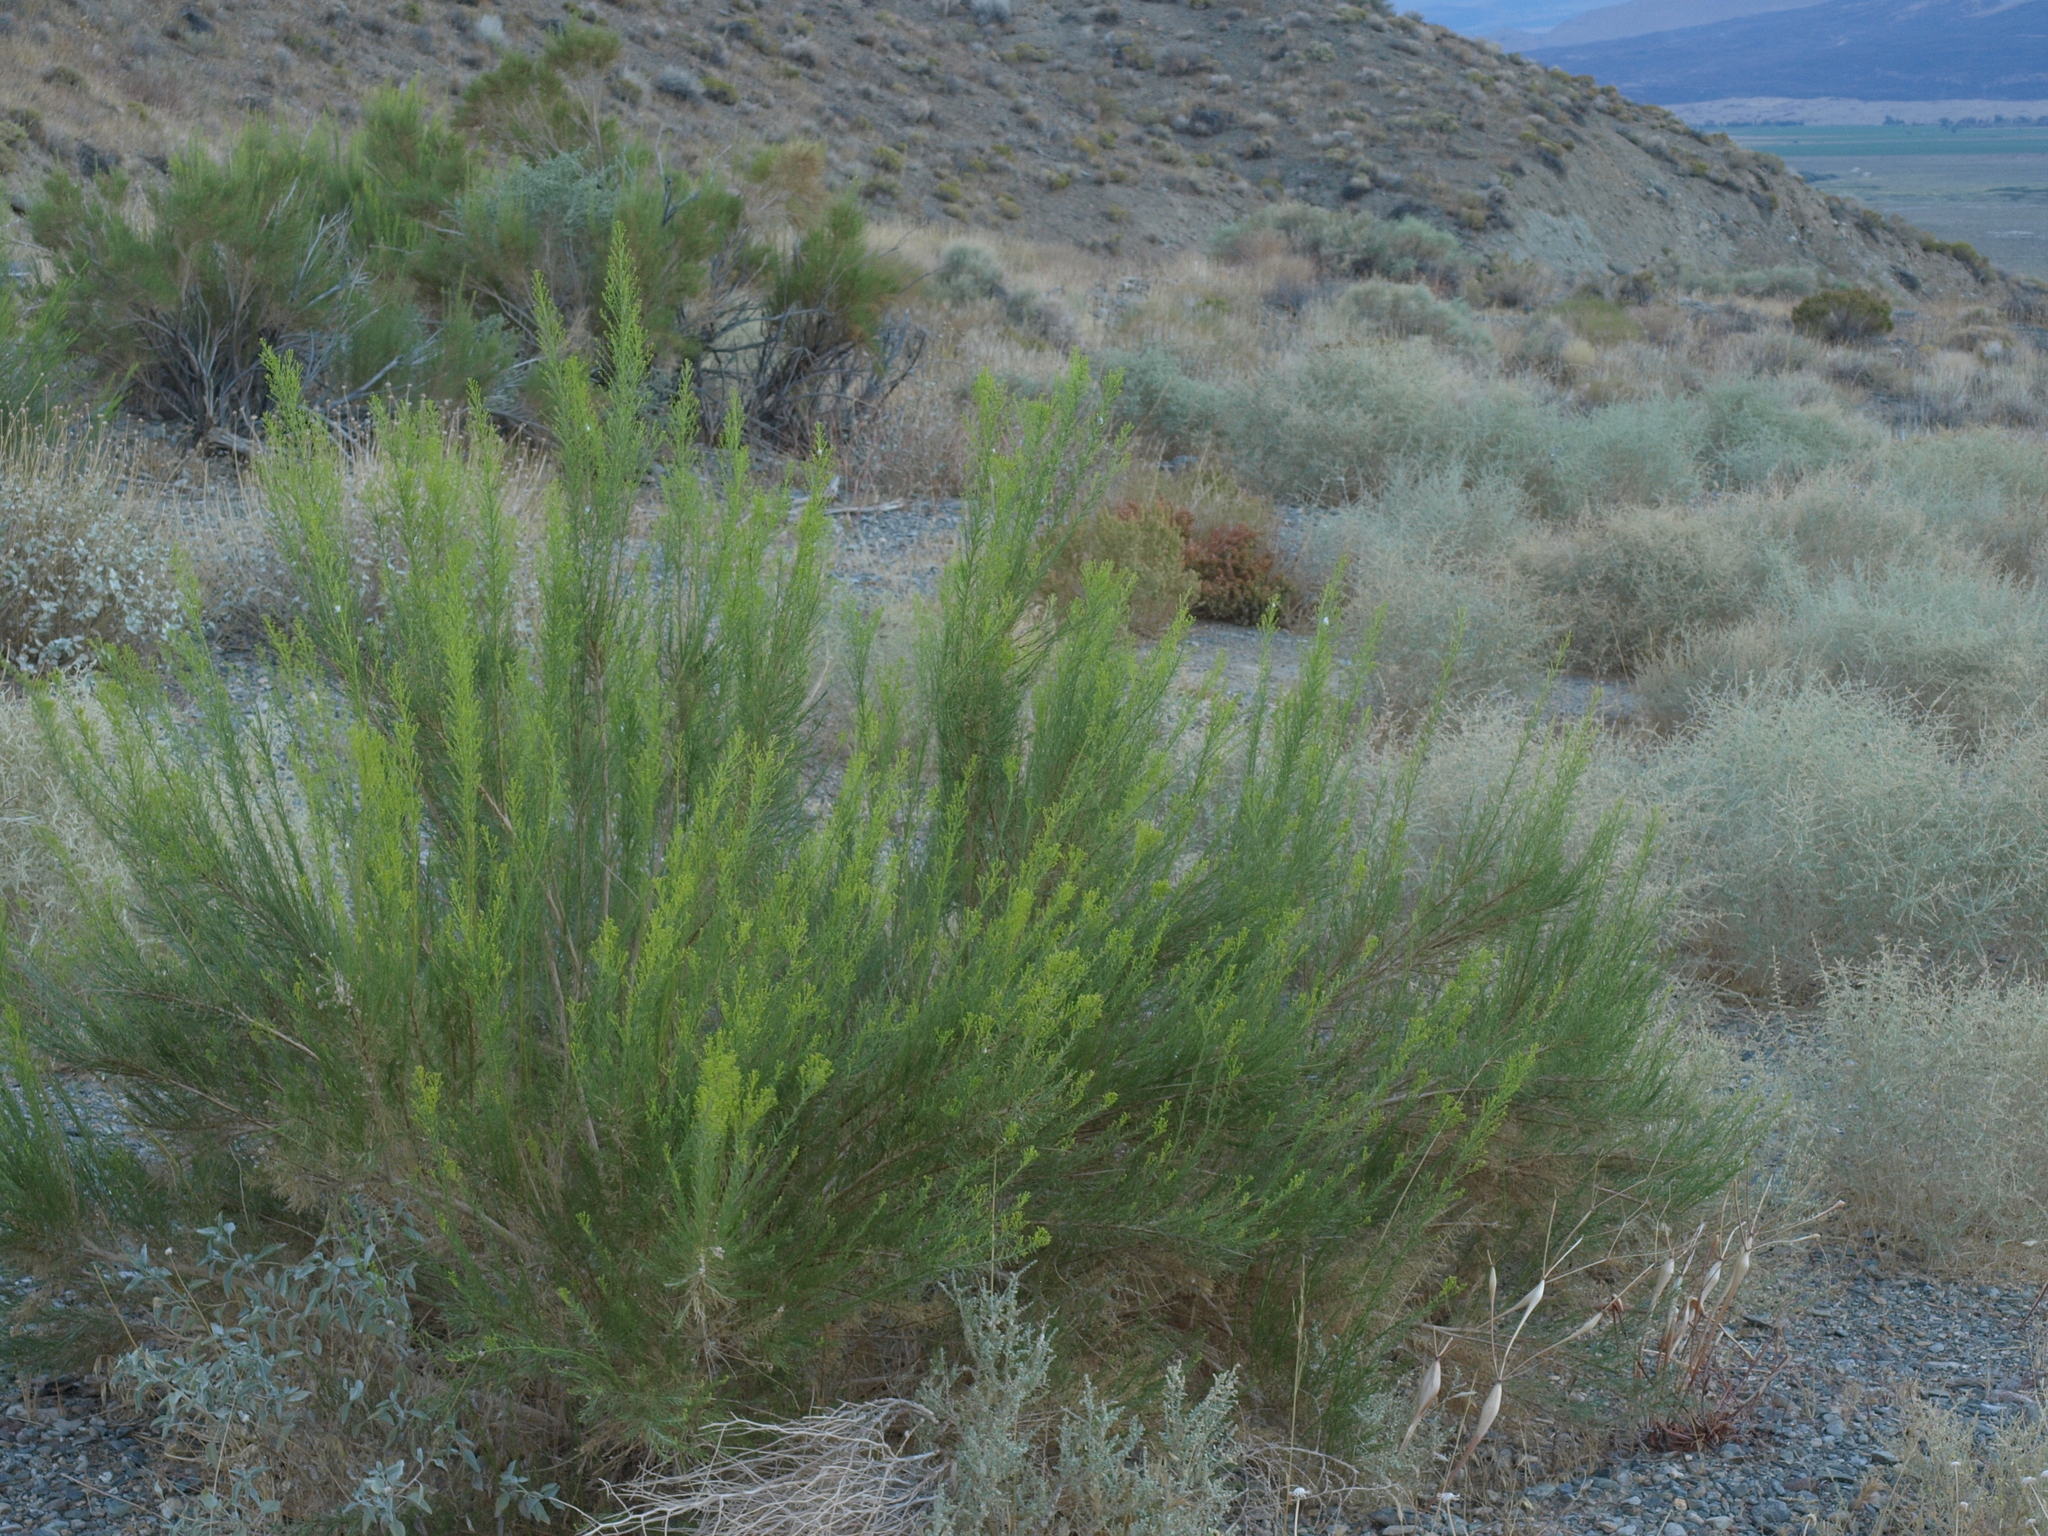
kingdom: Plantae
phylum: Tracheophyta
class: Magnoliopsida
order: Asterales
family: Asteraceae
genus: Ericameria
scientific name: Ericameria paniculata
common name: Punctate rabbitbrush
